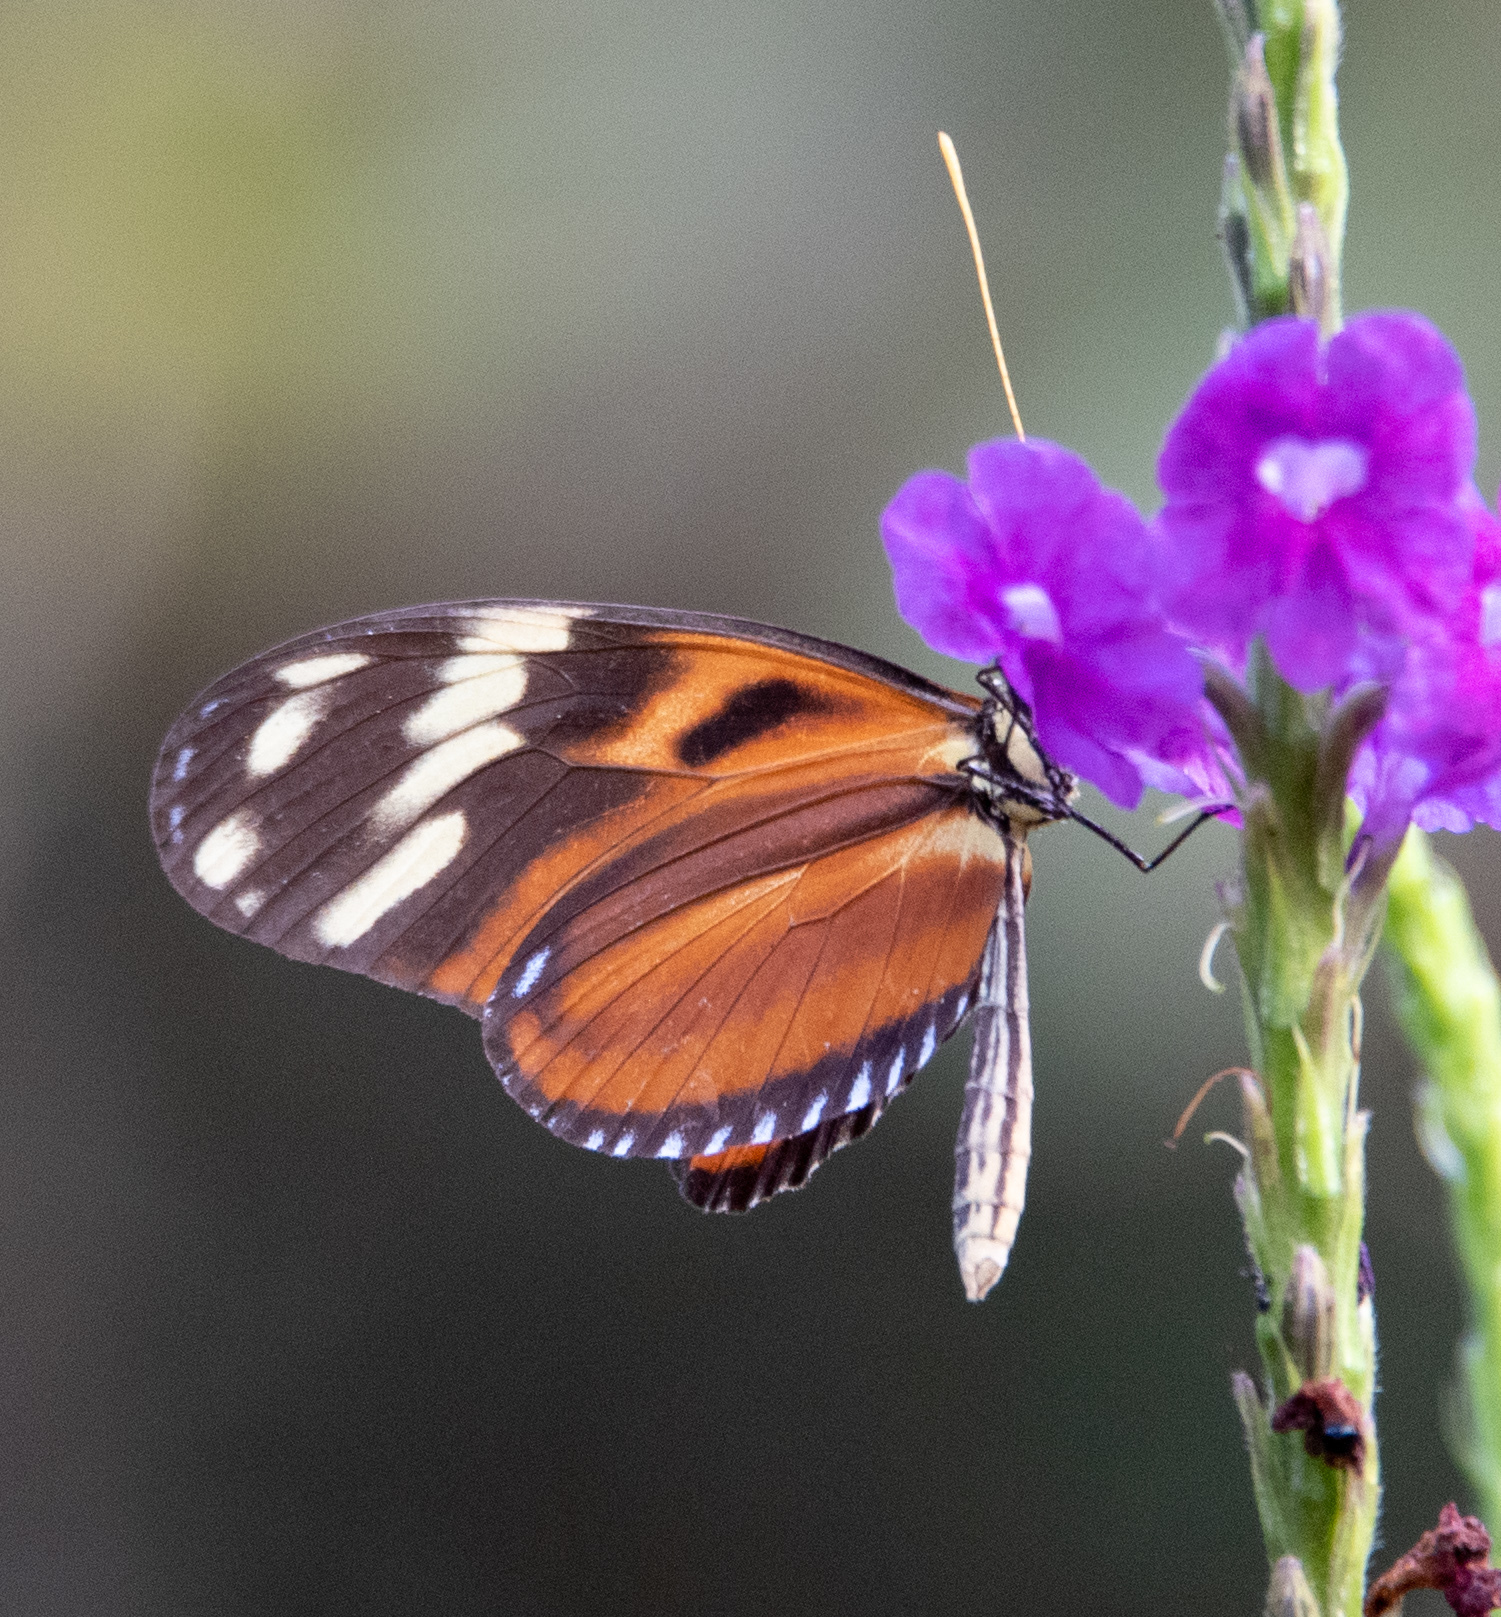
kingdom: Animalia
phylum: Arthropoda
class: Insecta
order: Lepidoptera
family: Nymphalidae
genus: Heliconius
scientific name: Heliconius ismenius
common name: Ismenius tiger
